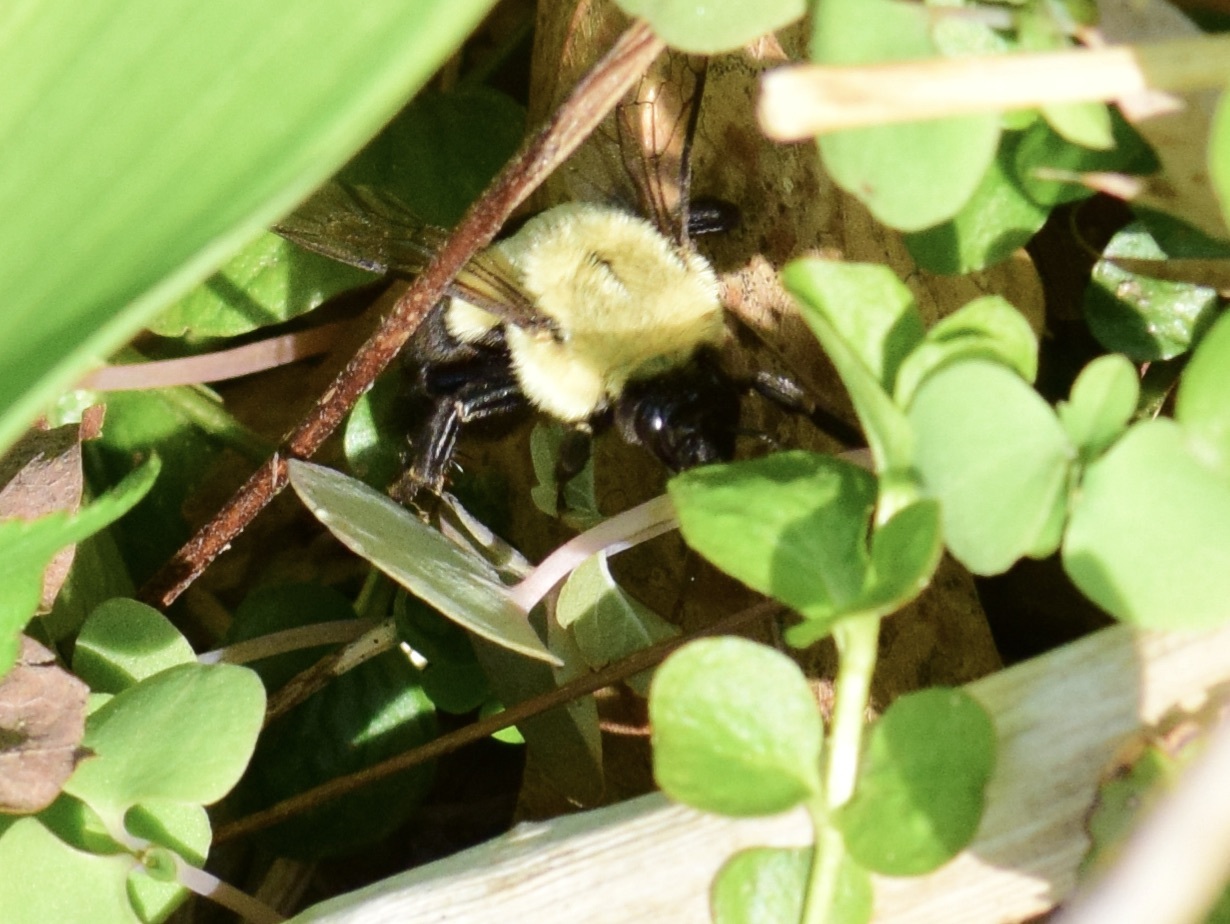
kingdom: Animalia
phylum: Arthropoda
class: Insecta
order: Hymenoptera
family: Apidae
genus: Bombus
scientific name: Bombus impatiens
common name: Common eastern bumble bee
